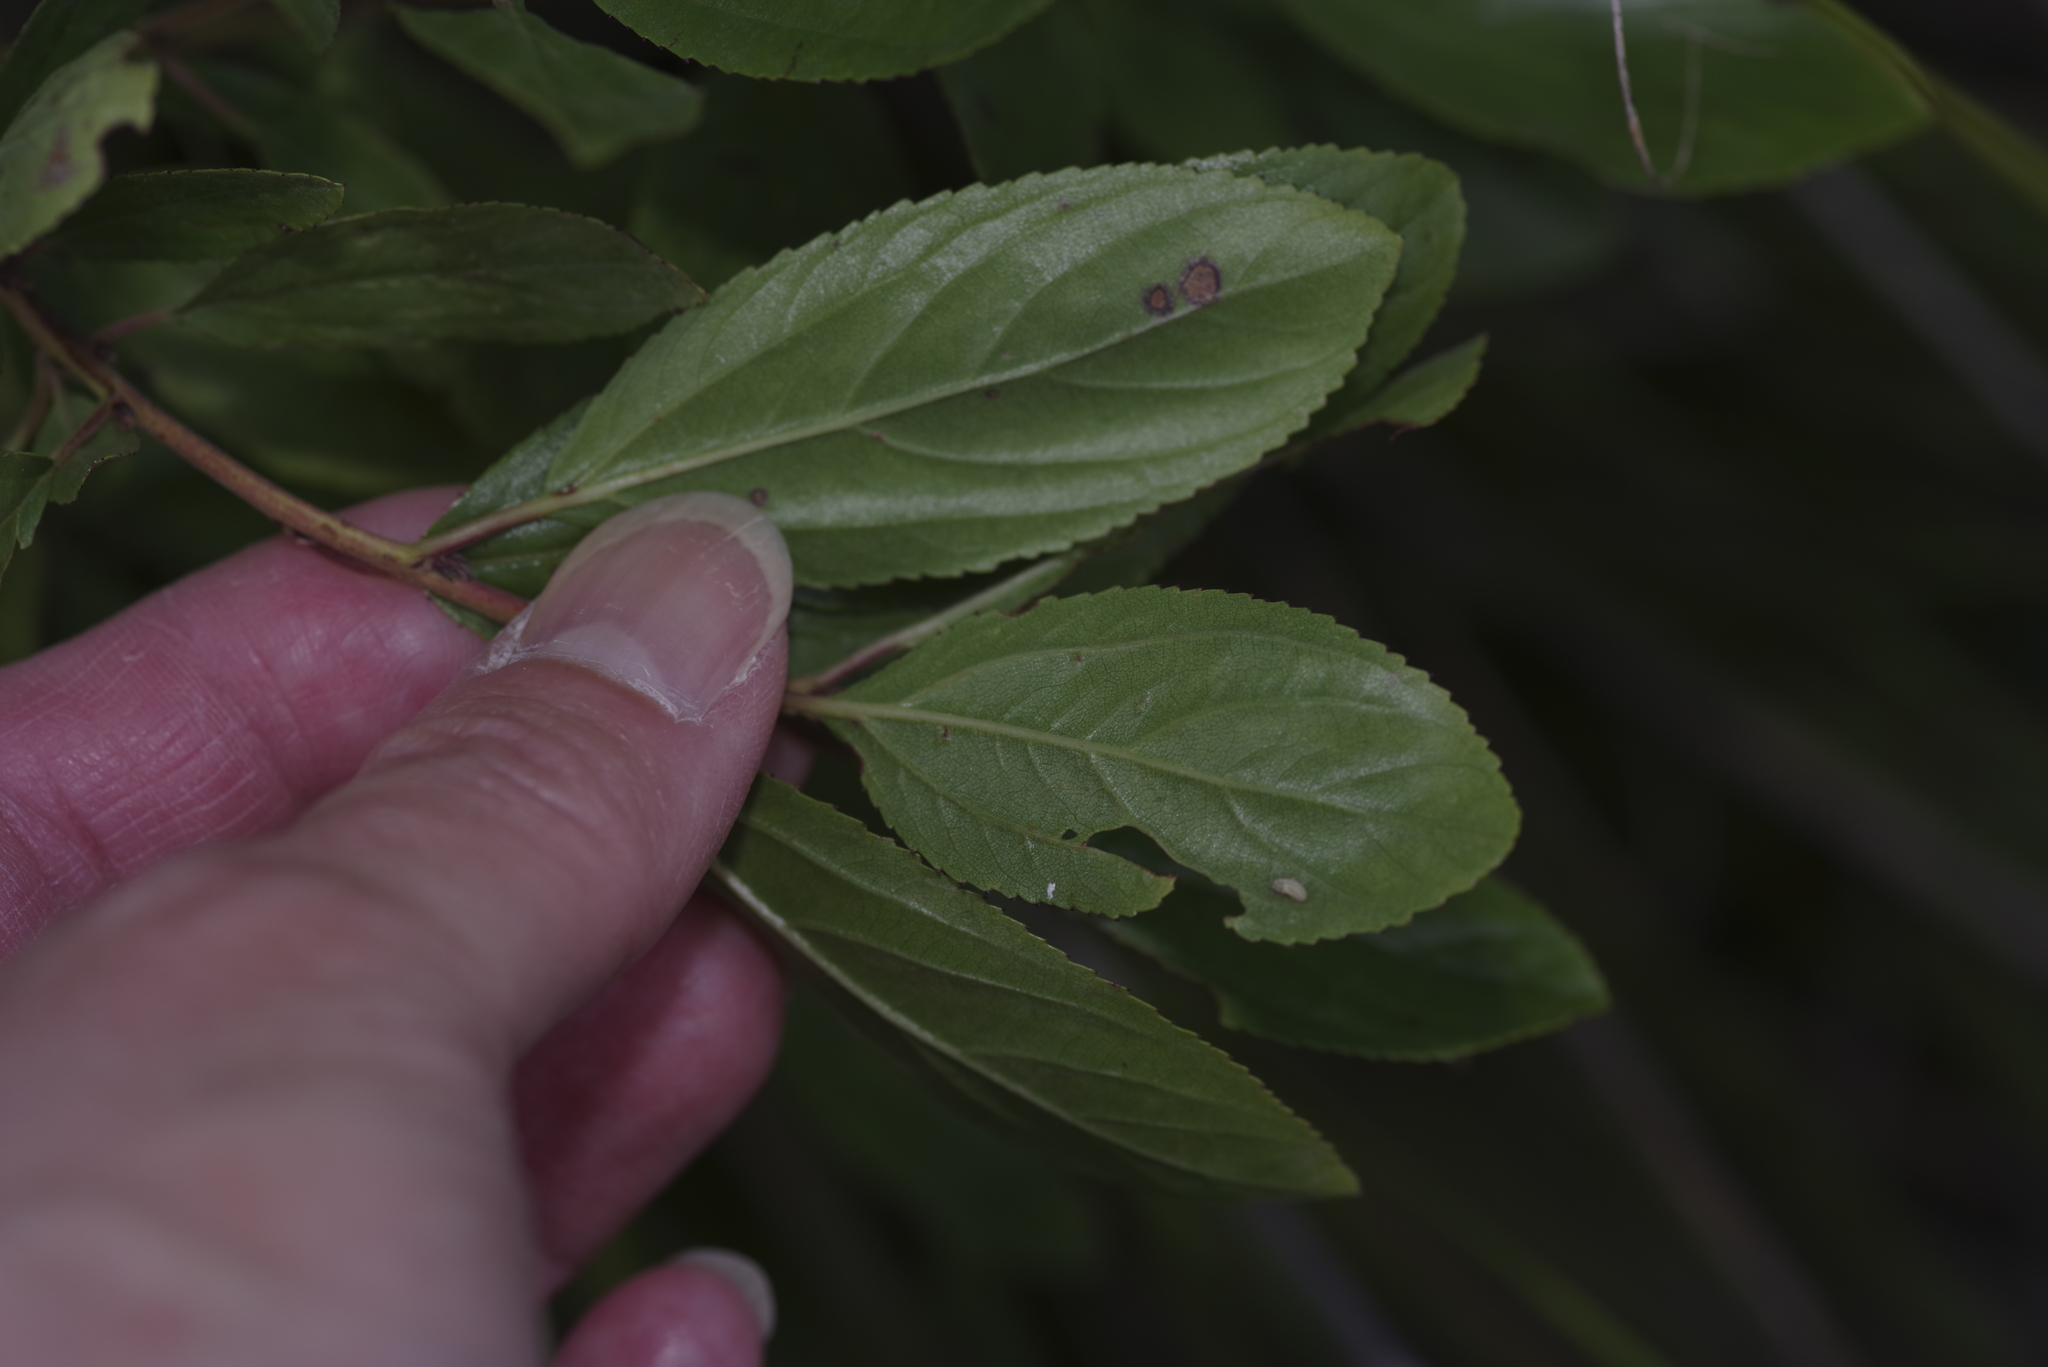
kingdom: Plantae
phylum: Tracheophyta
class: Magnoliopsida
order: Rosales
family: Rhamnaceae
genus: Ceanothus
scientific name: Ceanothus herbaceus
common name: Inland ceanothus
